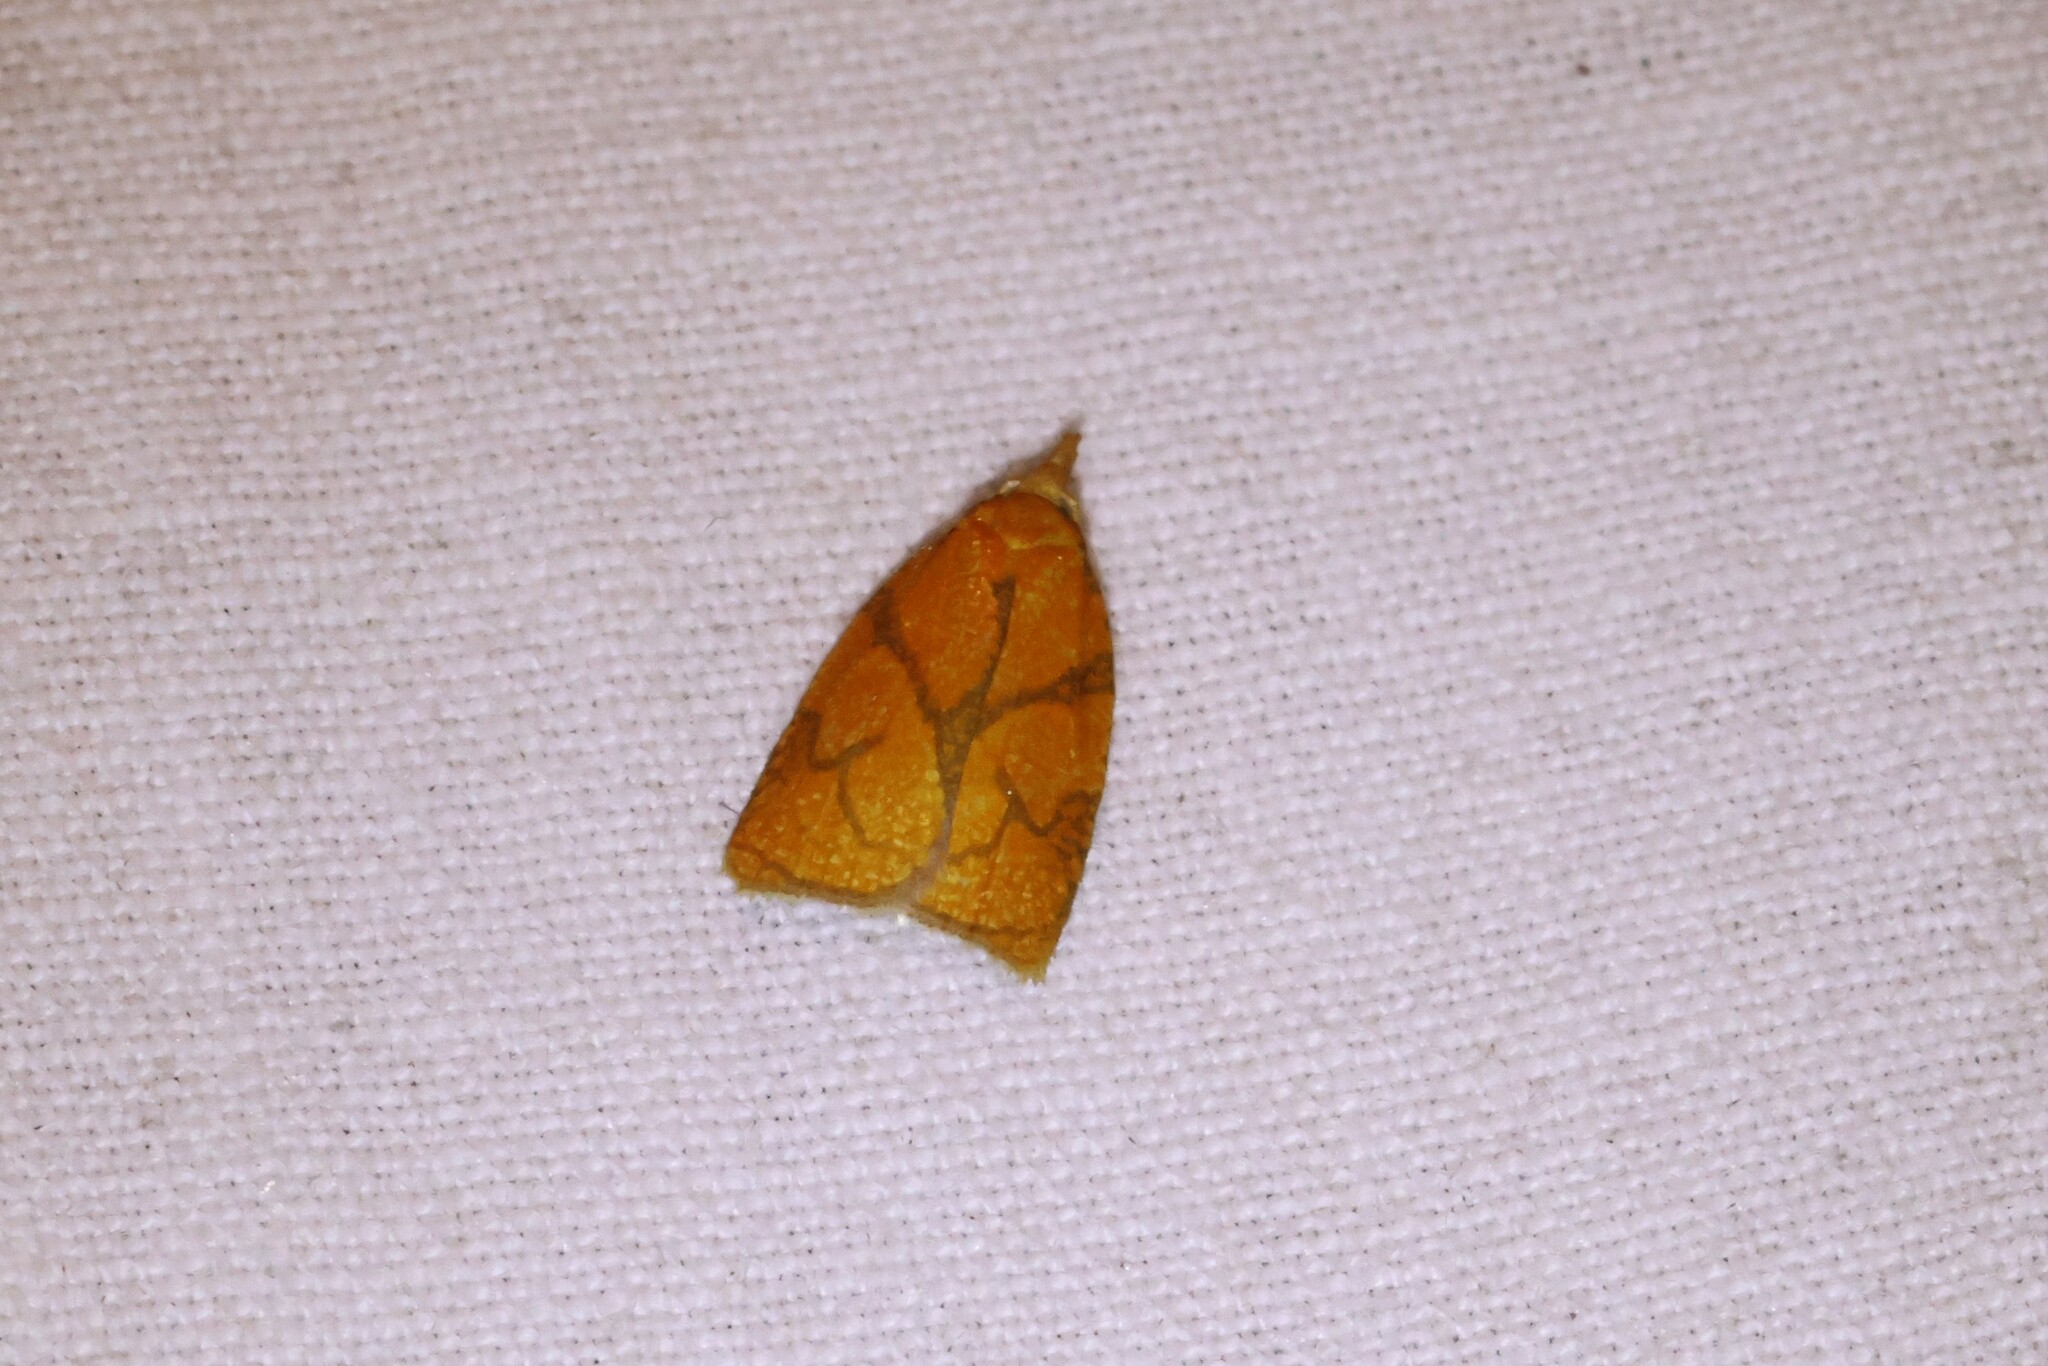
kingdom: Animalia
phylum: Arthropoda
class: Insecta
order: Lepidoptera
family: Tortricidae
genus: Cenopis
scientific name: Cenopis reticulatana
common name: Reticulated fruitworm moth
